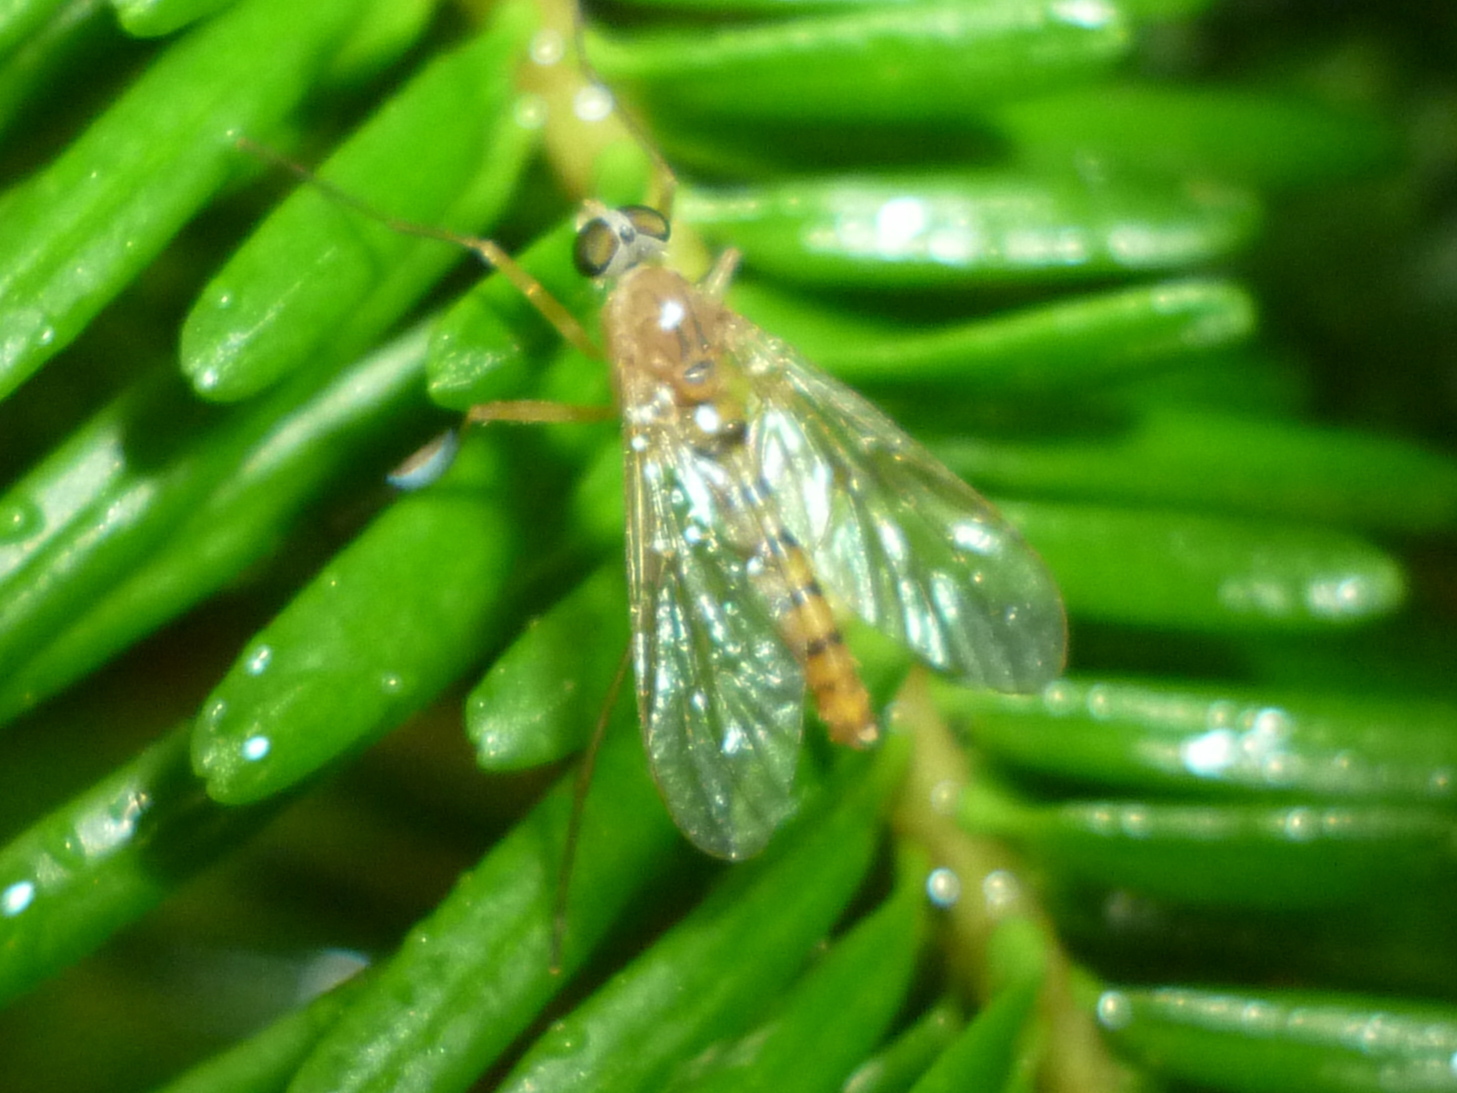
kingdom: Animalia
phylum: Arthropoda
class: Insecta
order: Diptera
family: Rhagionidae
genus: Rhagio
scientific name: Rhagio gracilis
